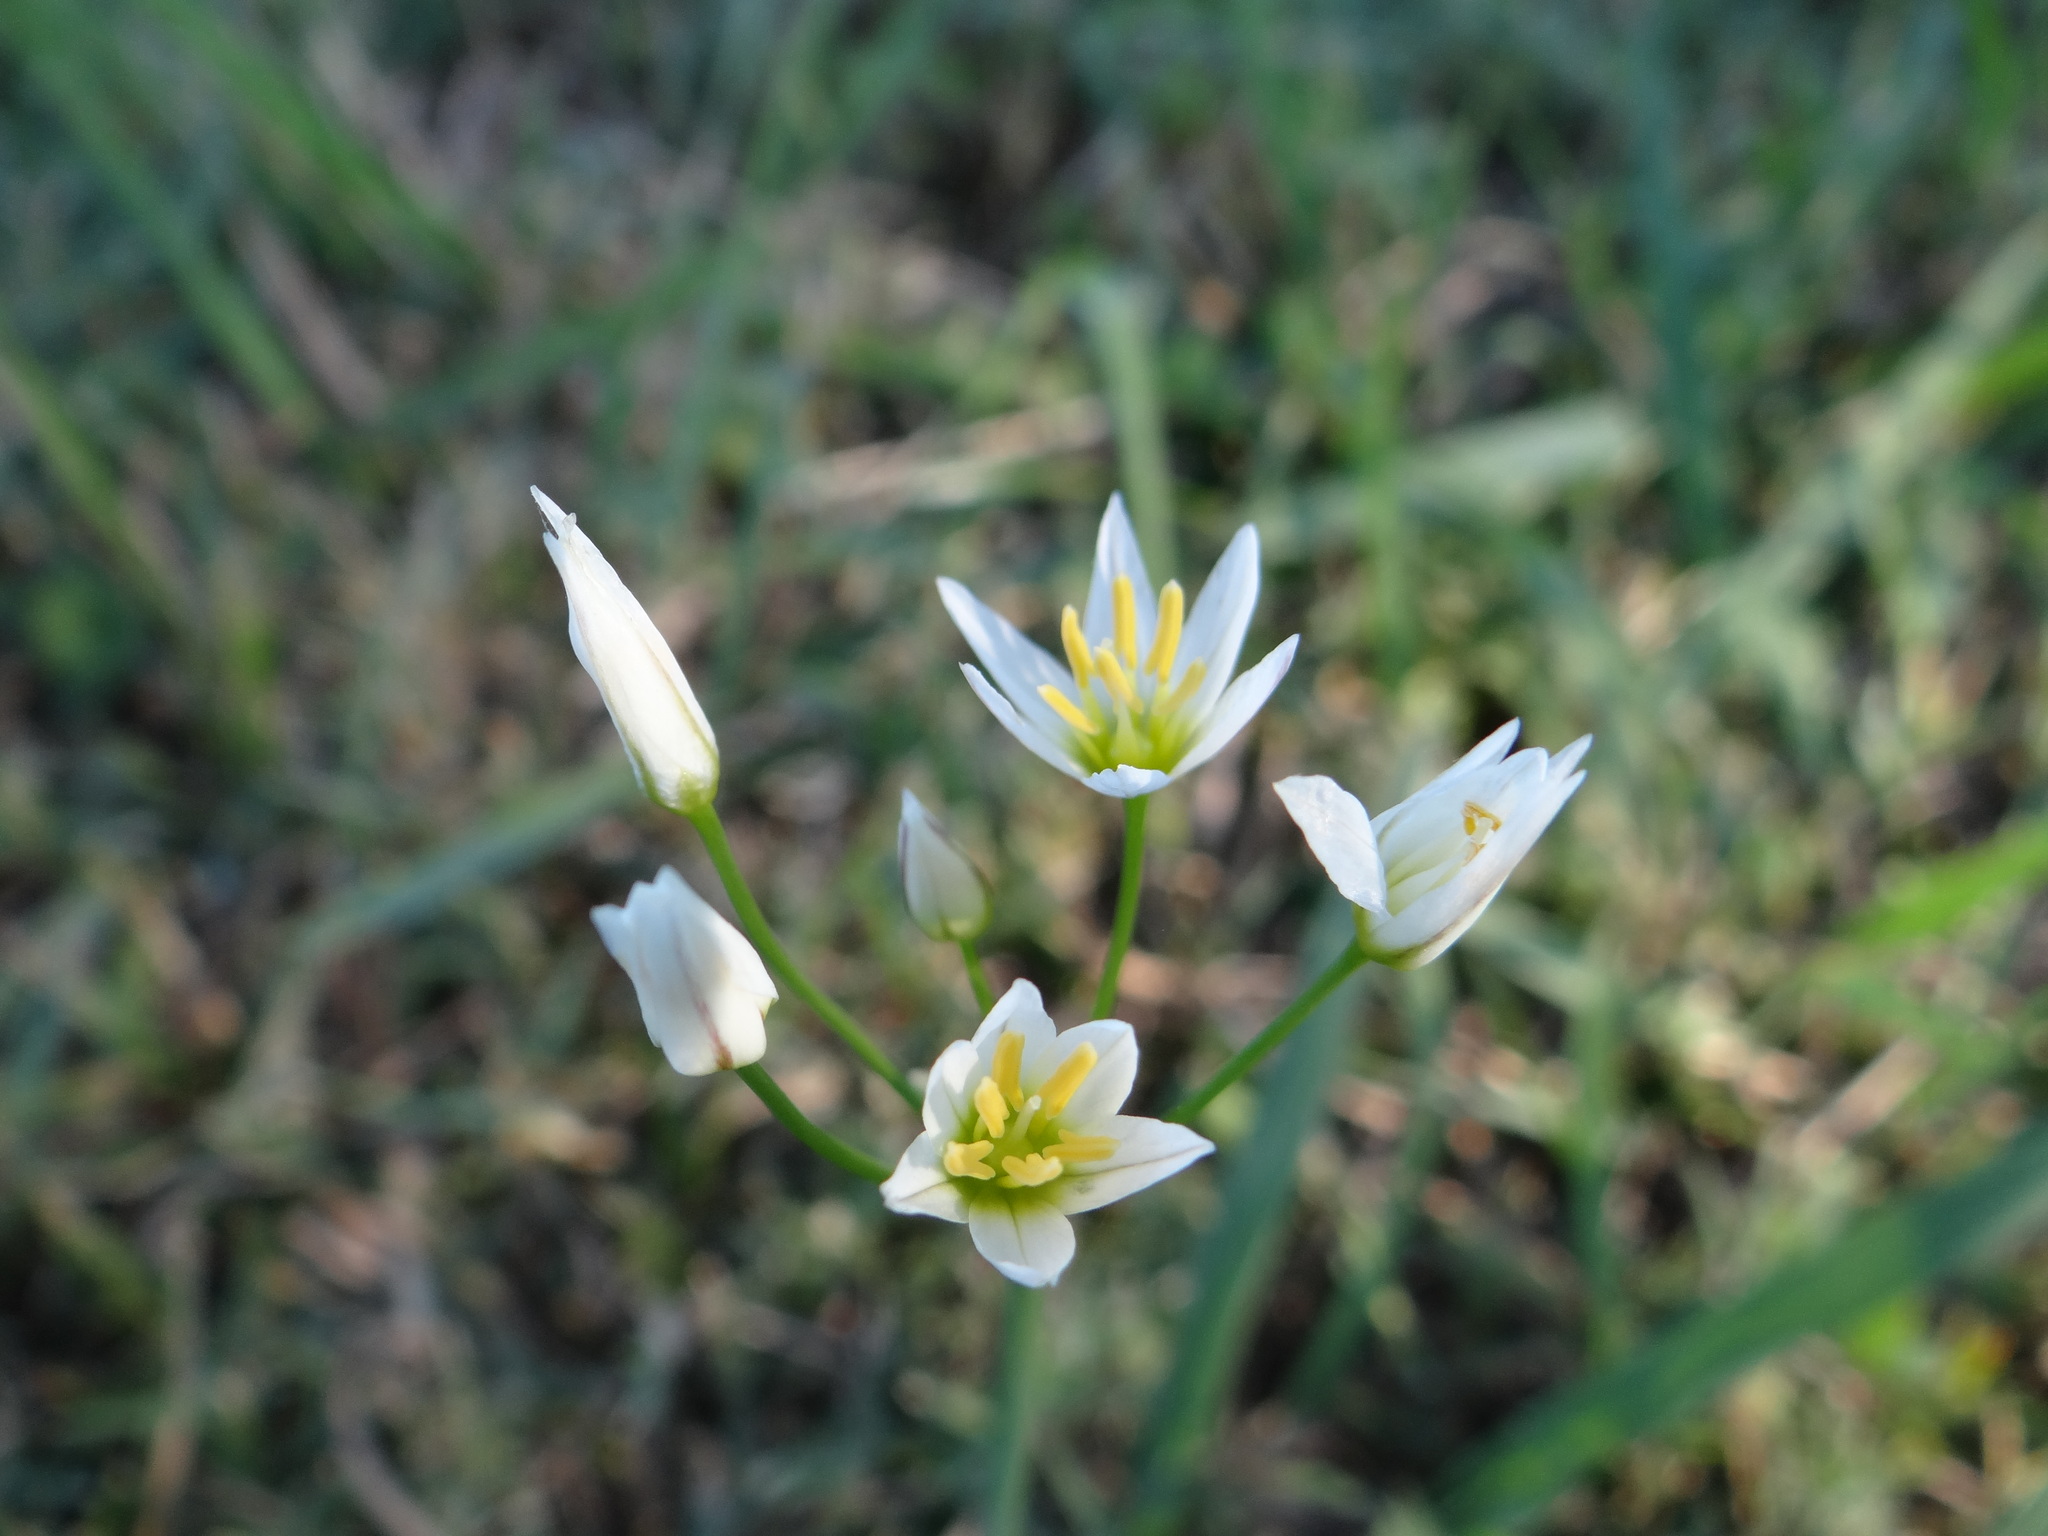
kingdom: Plantae
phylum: Tracheophyta
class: Liliopsida
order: Asparagales
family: Amaryllidaceae
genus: Nothoscordum
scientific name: Nothoscordum bivalve
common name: Crow-poison
